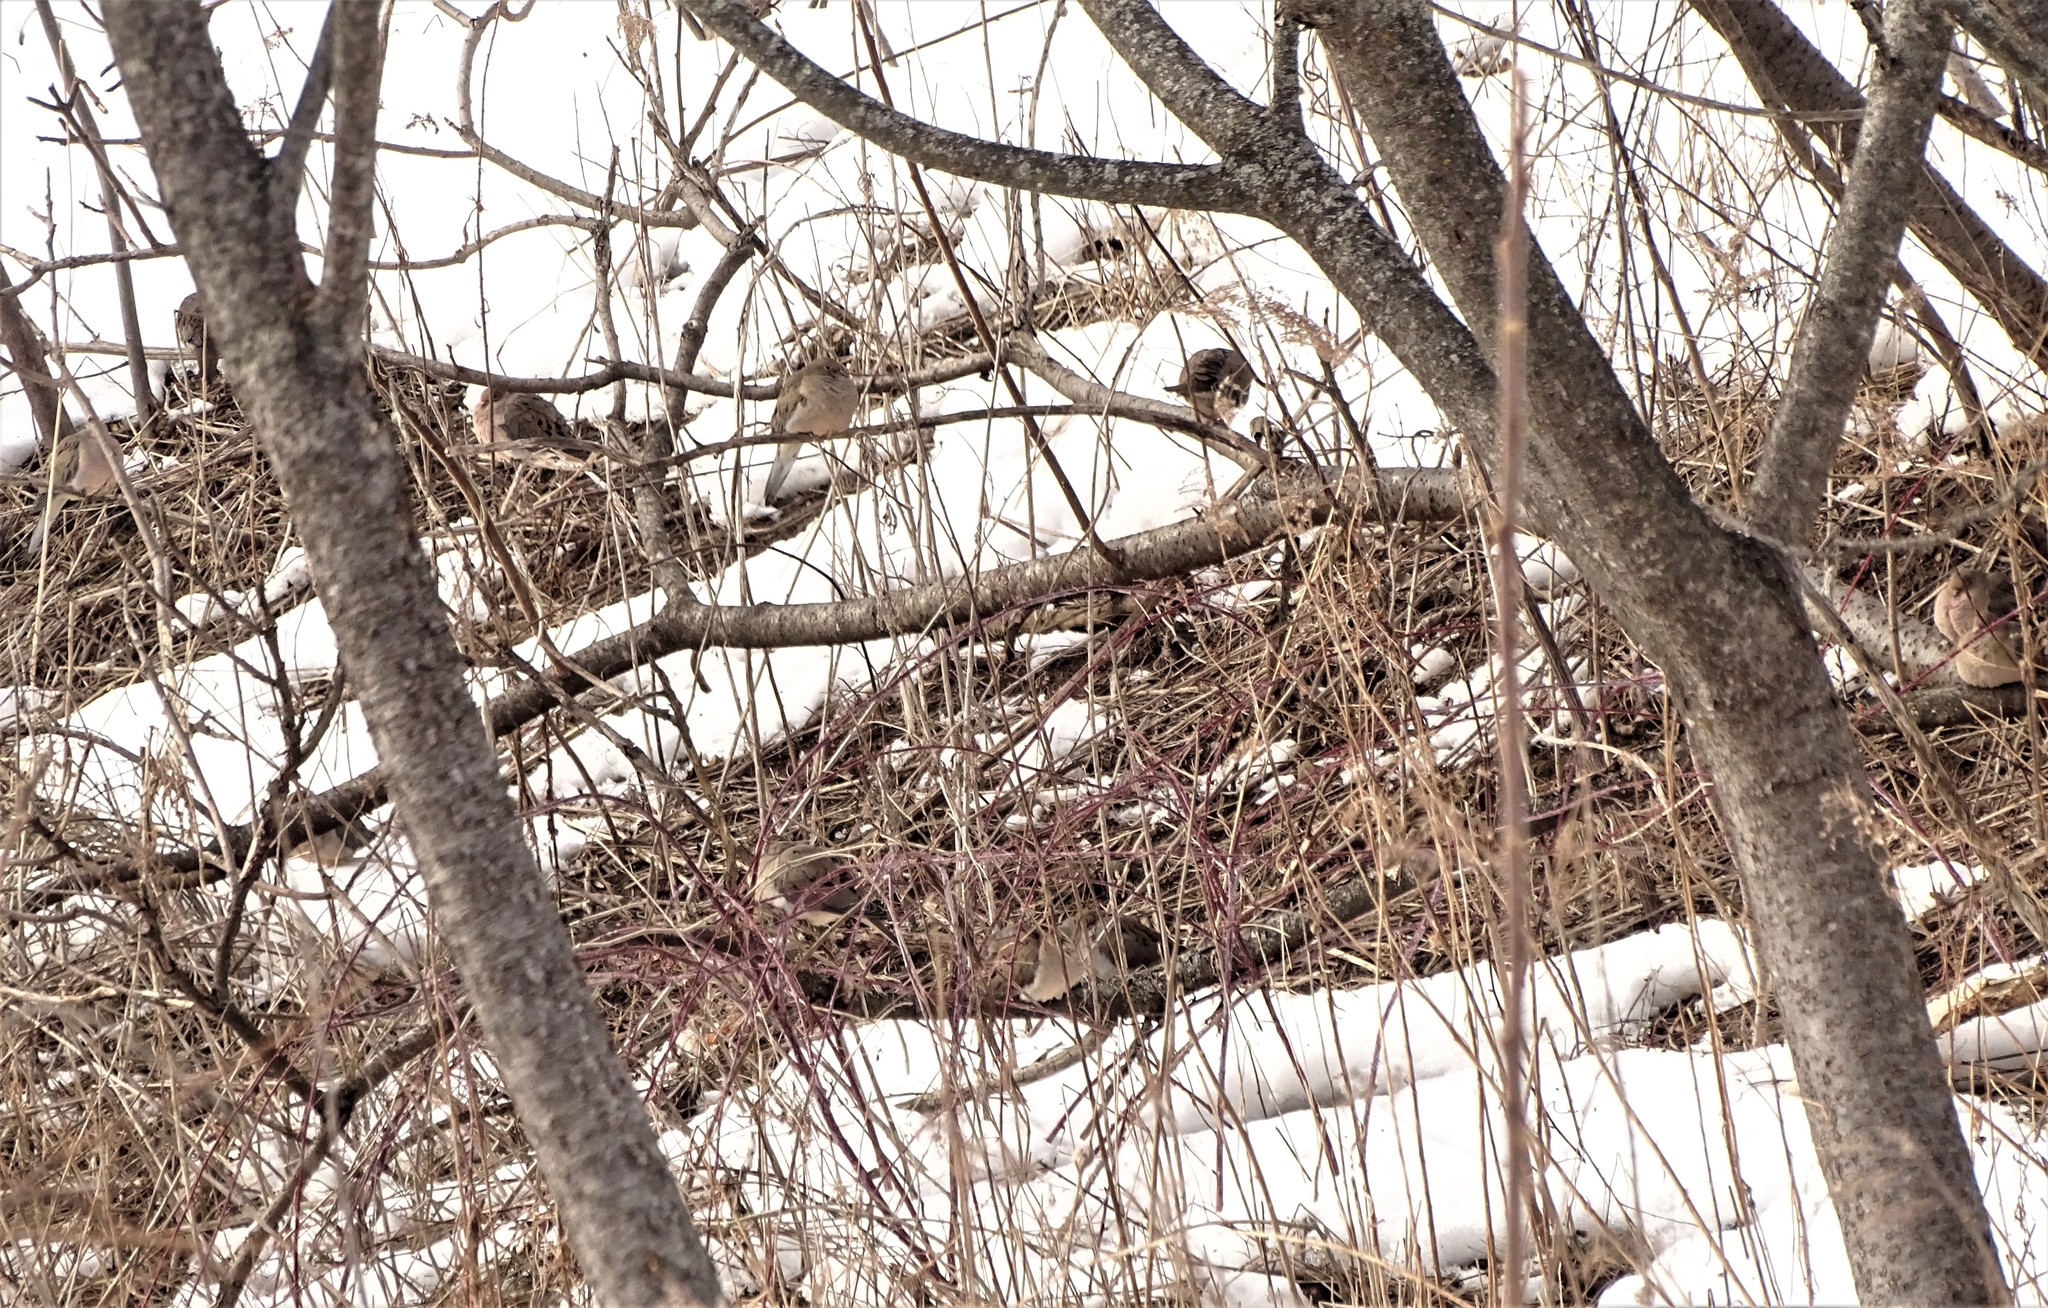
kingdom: Animalia
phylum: Chordata
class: Aves
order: Columbiformes
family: Columbidae
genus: Zenaida
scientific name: Zenaida macroura
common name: Mourning dove
